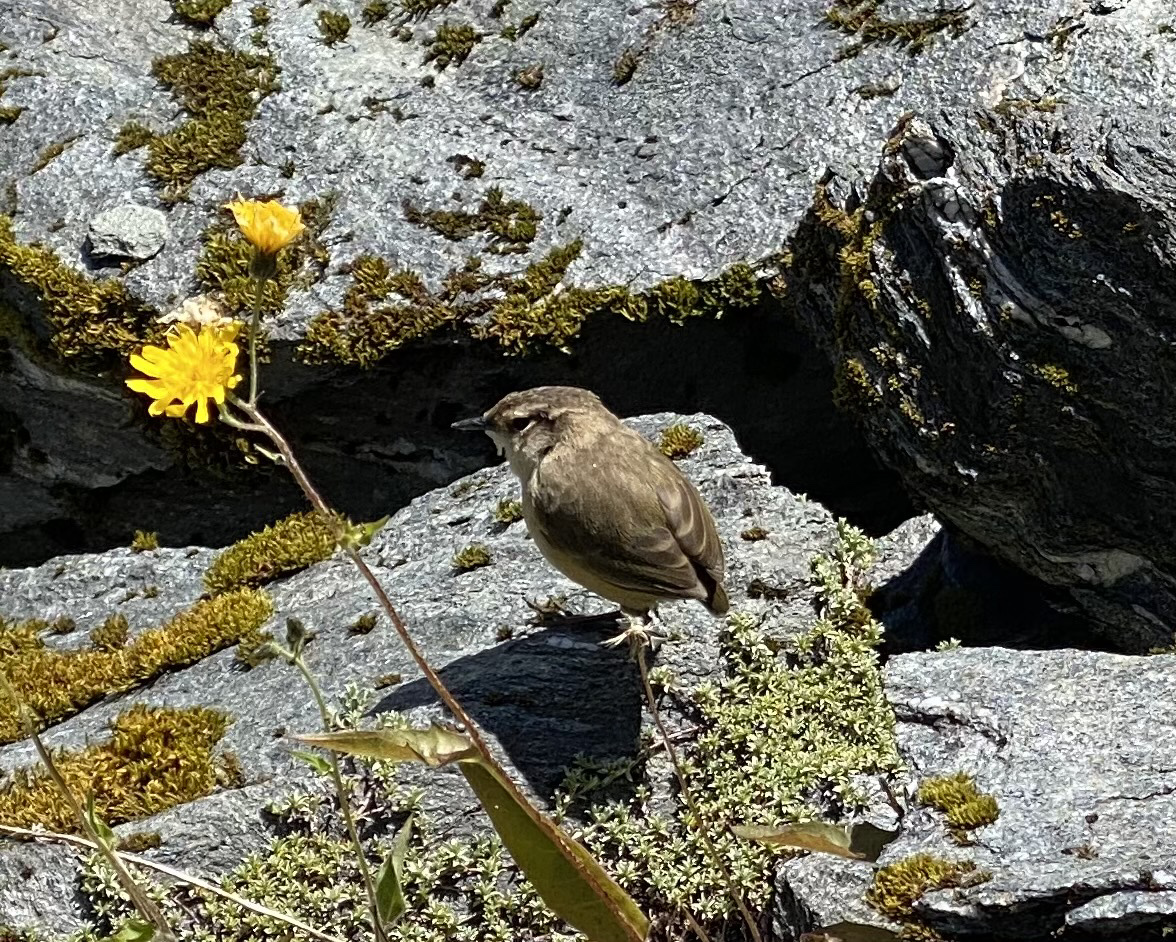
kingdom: Animalia
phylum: Chordata
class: Aves
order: Passeriformes
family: Acanthisittidae
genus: Xenicus
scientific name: Xenicus gilviventris
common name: New zealand rockwren
